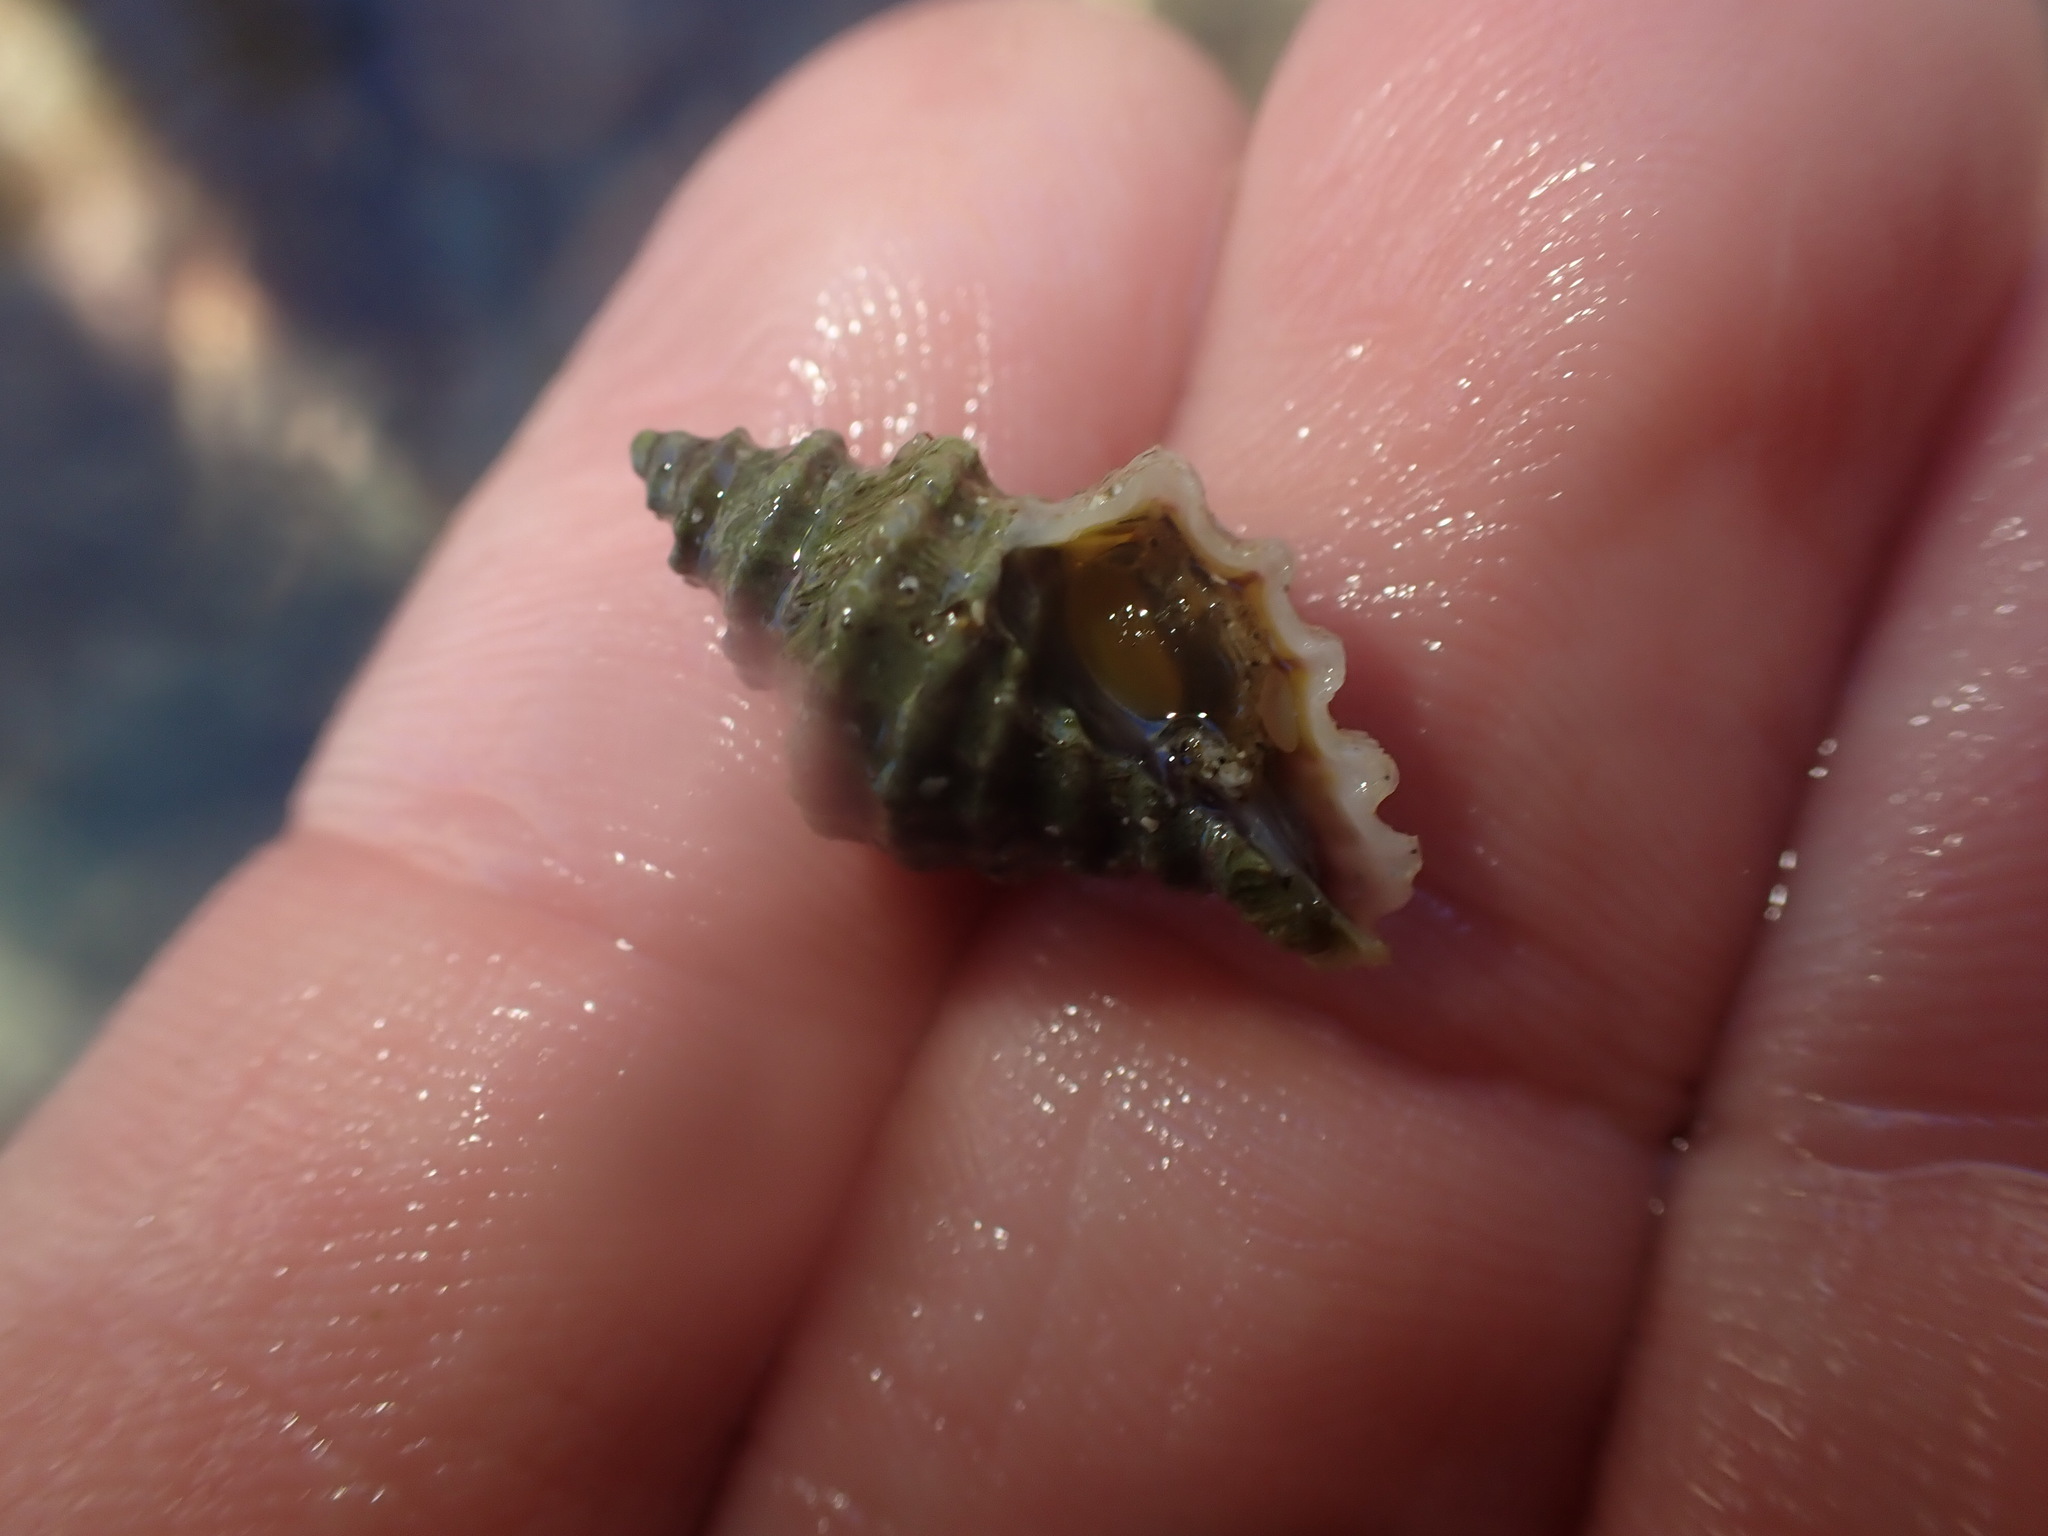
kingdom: Animalia
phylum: Mollusca
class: Gastropoda
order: Neogastropoda
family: Muricidae
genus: Paratrophon
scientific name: Paratrophon quoyi
